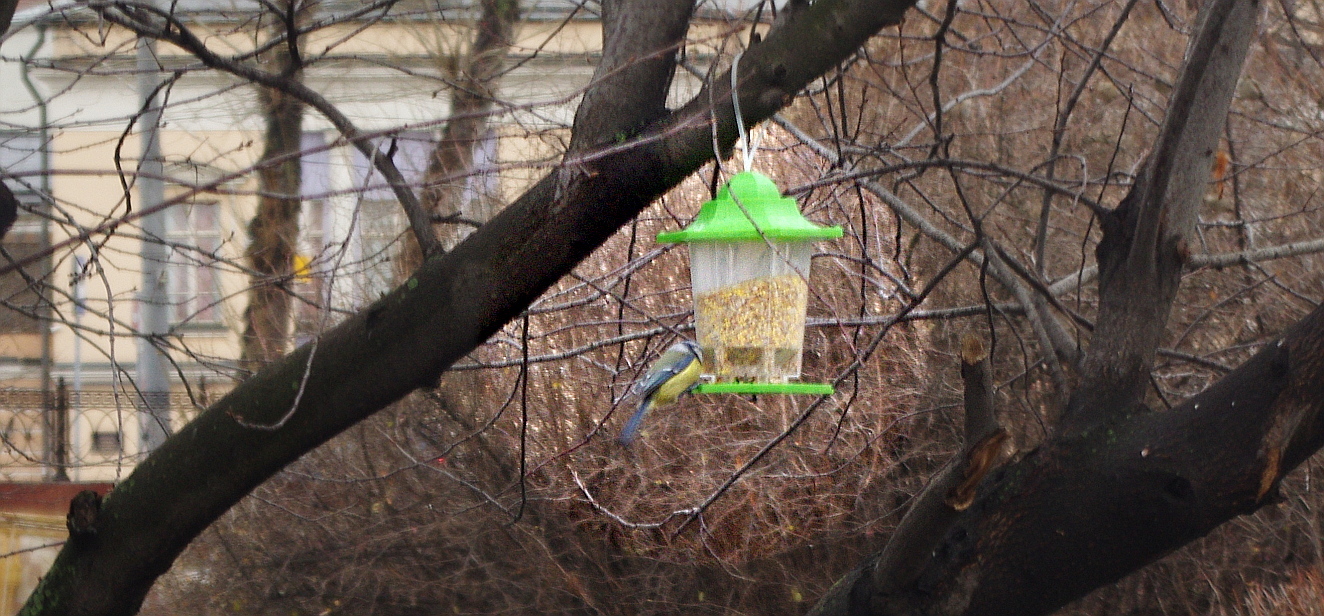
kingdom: Animalia
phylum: Chordata
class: Aves
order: Passeriformes
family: Paridae
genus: Cyanistes
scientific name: Cyanistes caeruleus
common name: Eurasian blue tit
